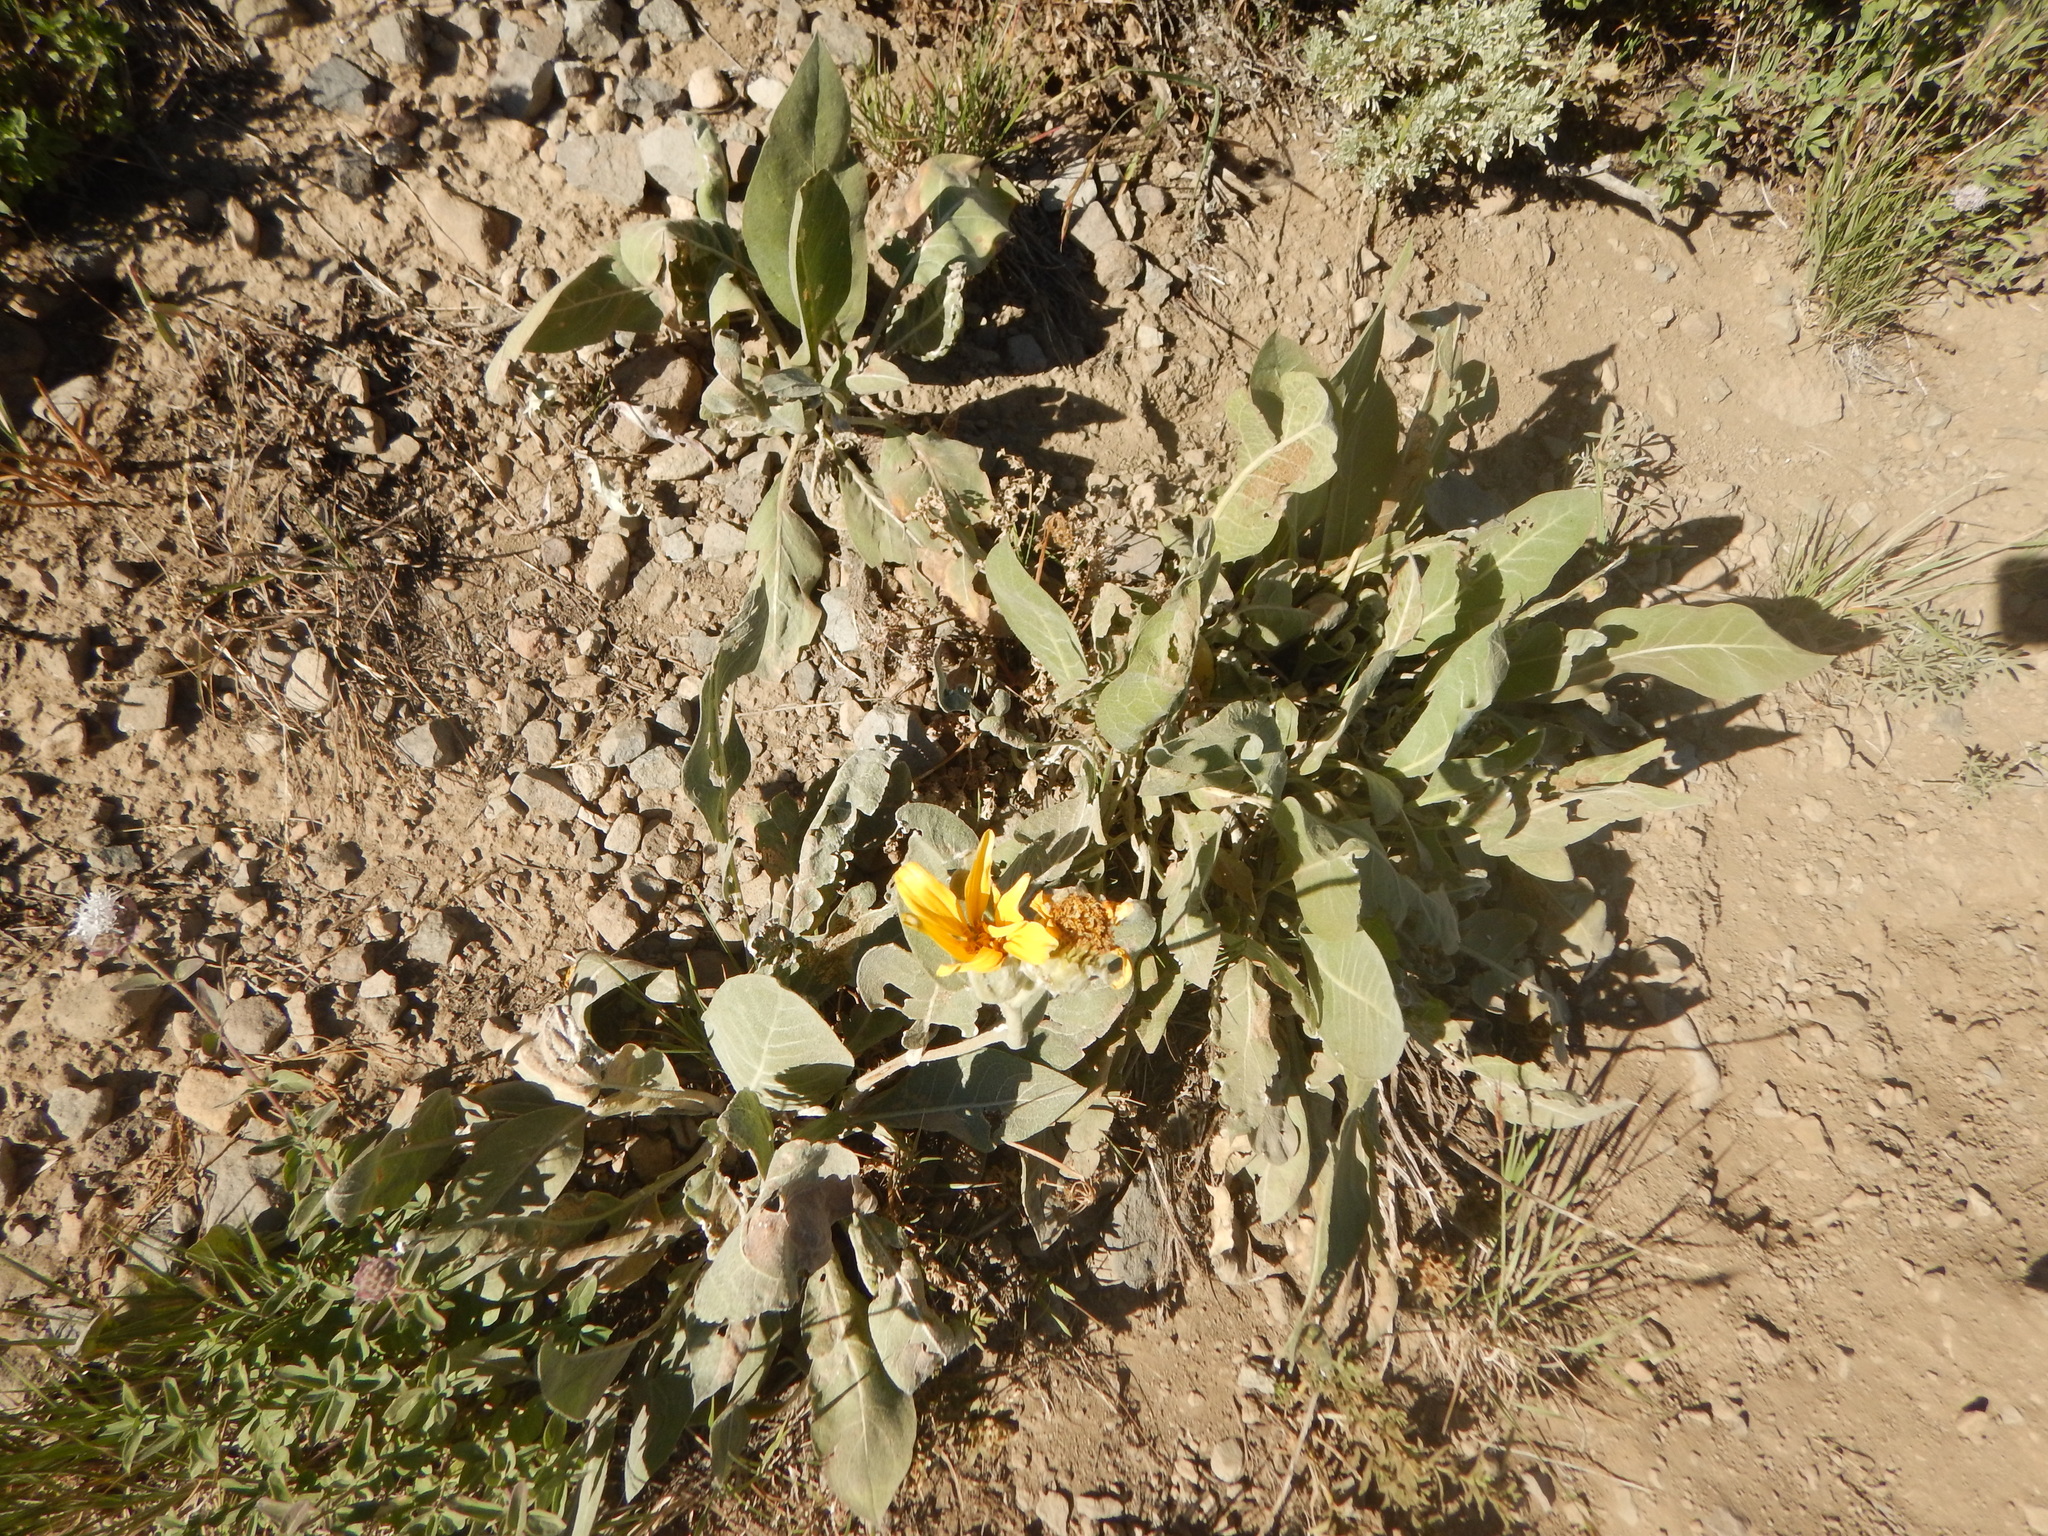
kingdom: Plantae
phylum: Tracheophyta
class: Magnoliopsida
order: Asterales
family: Asteraceae
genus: Wyethia
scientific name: Wyethia mollis
